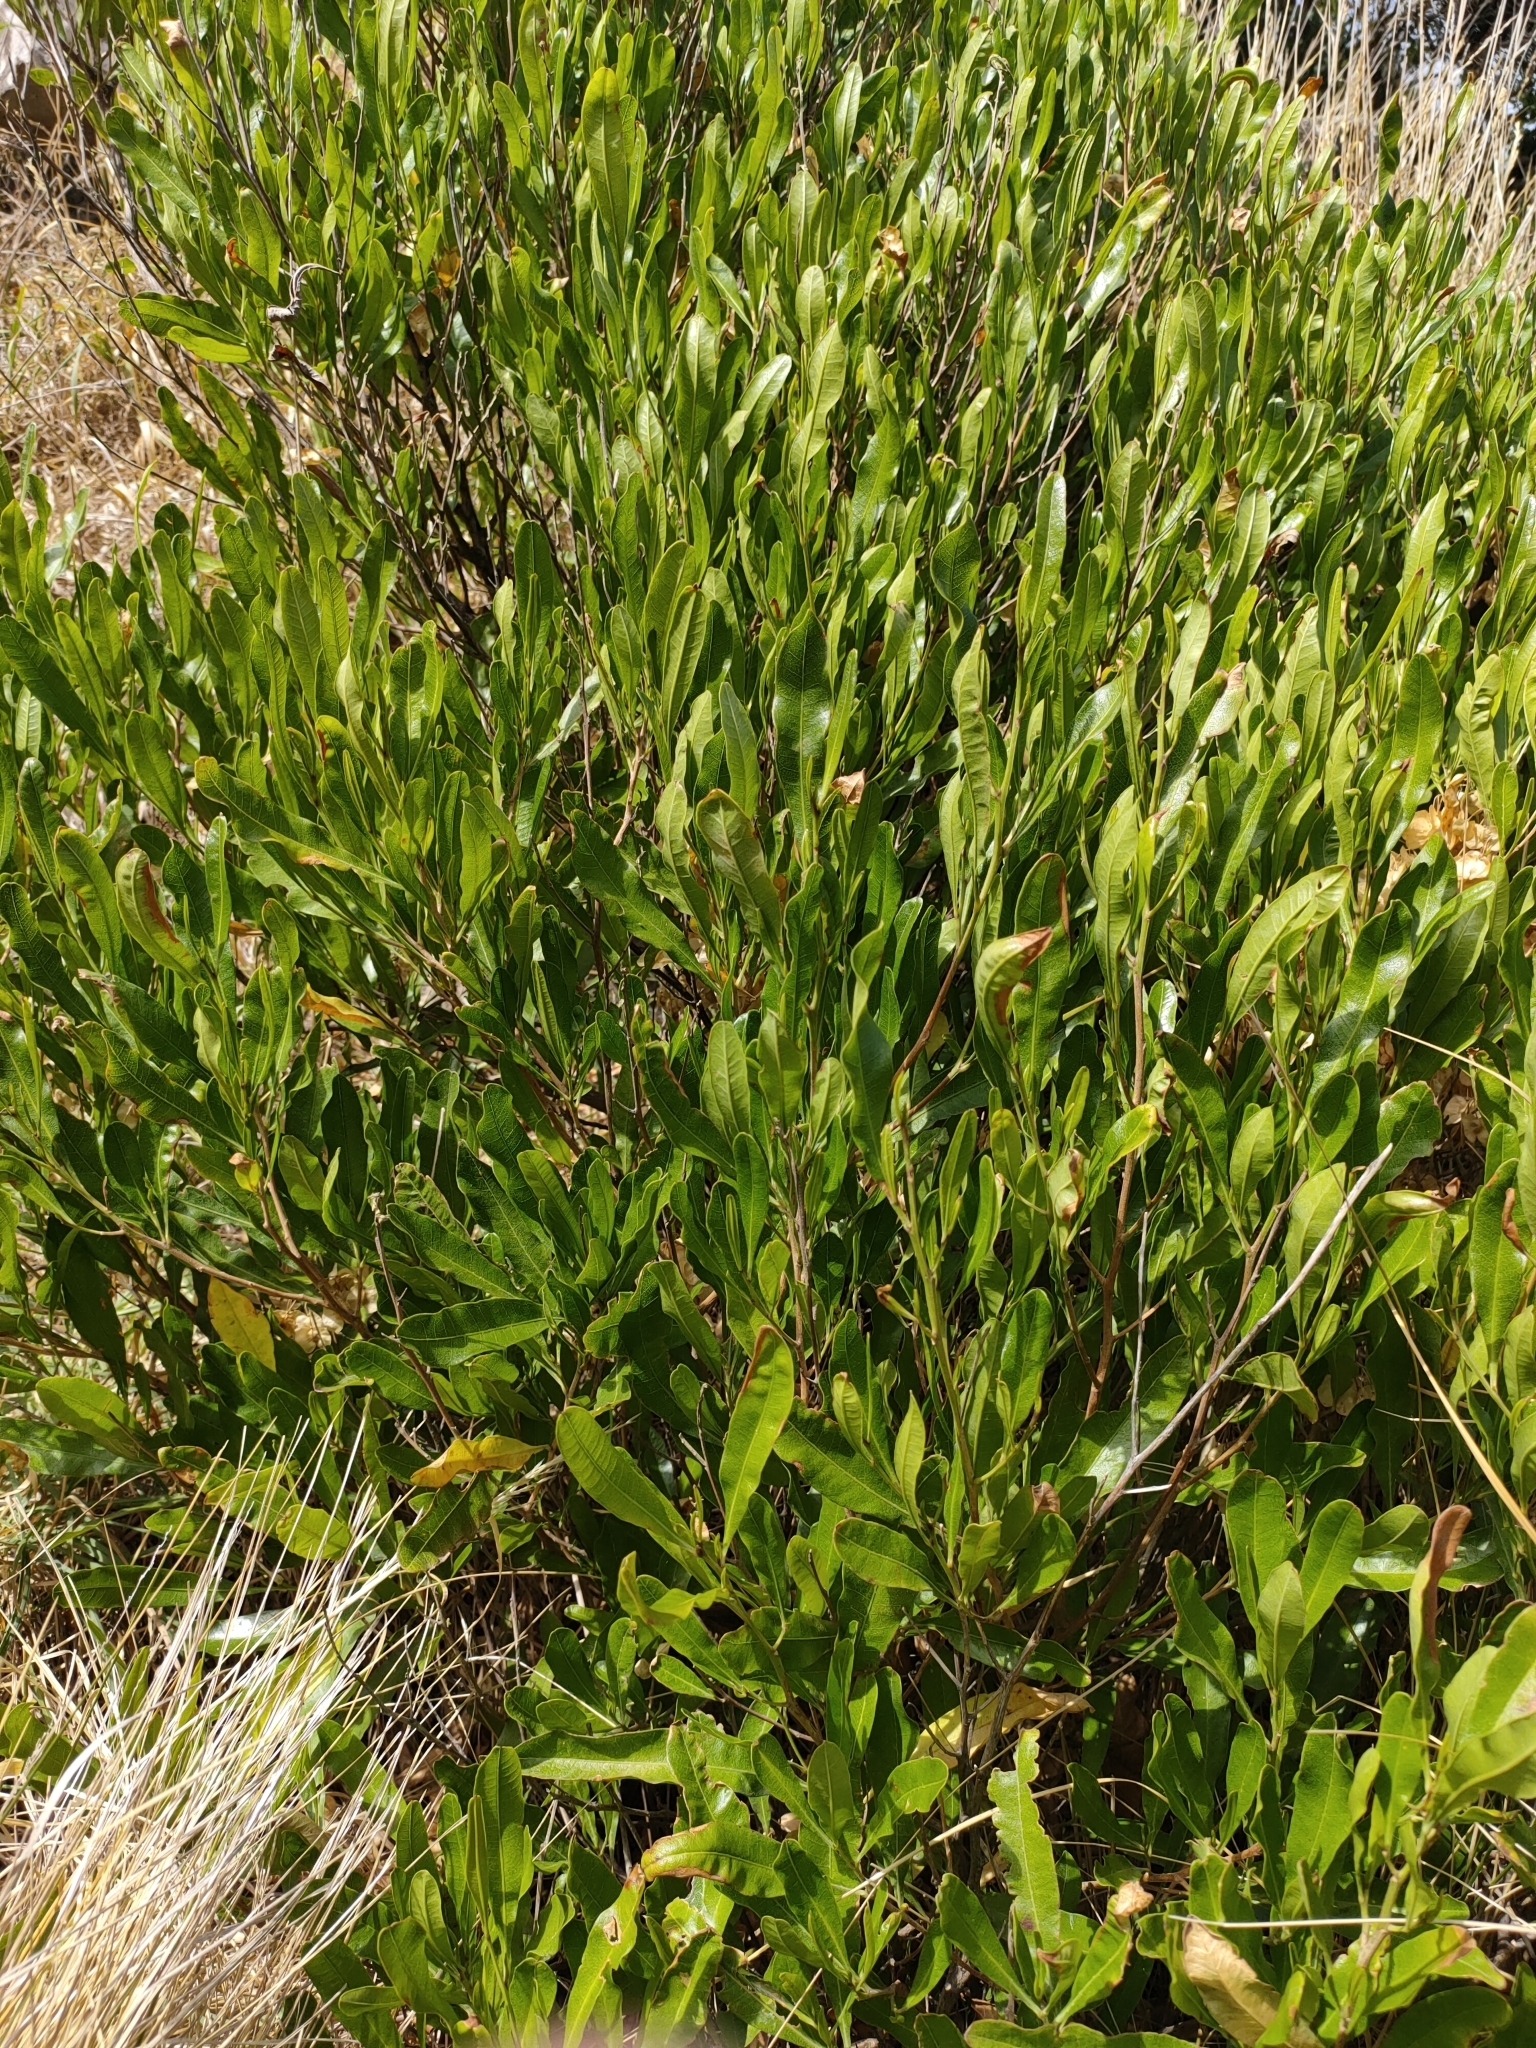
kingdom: Plantae
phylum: Tracheophyta
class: Magnoliopsida
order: Sapindales
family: Sapindaceae
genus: Dodonaea
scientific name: Dodonaea viscosa
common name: Hopbush
